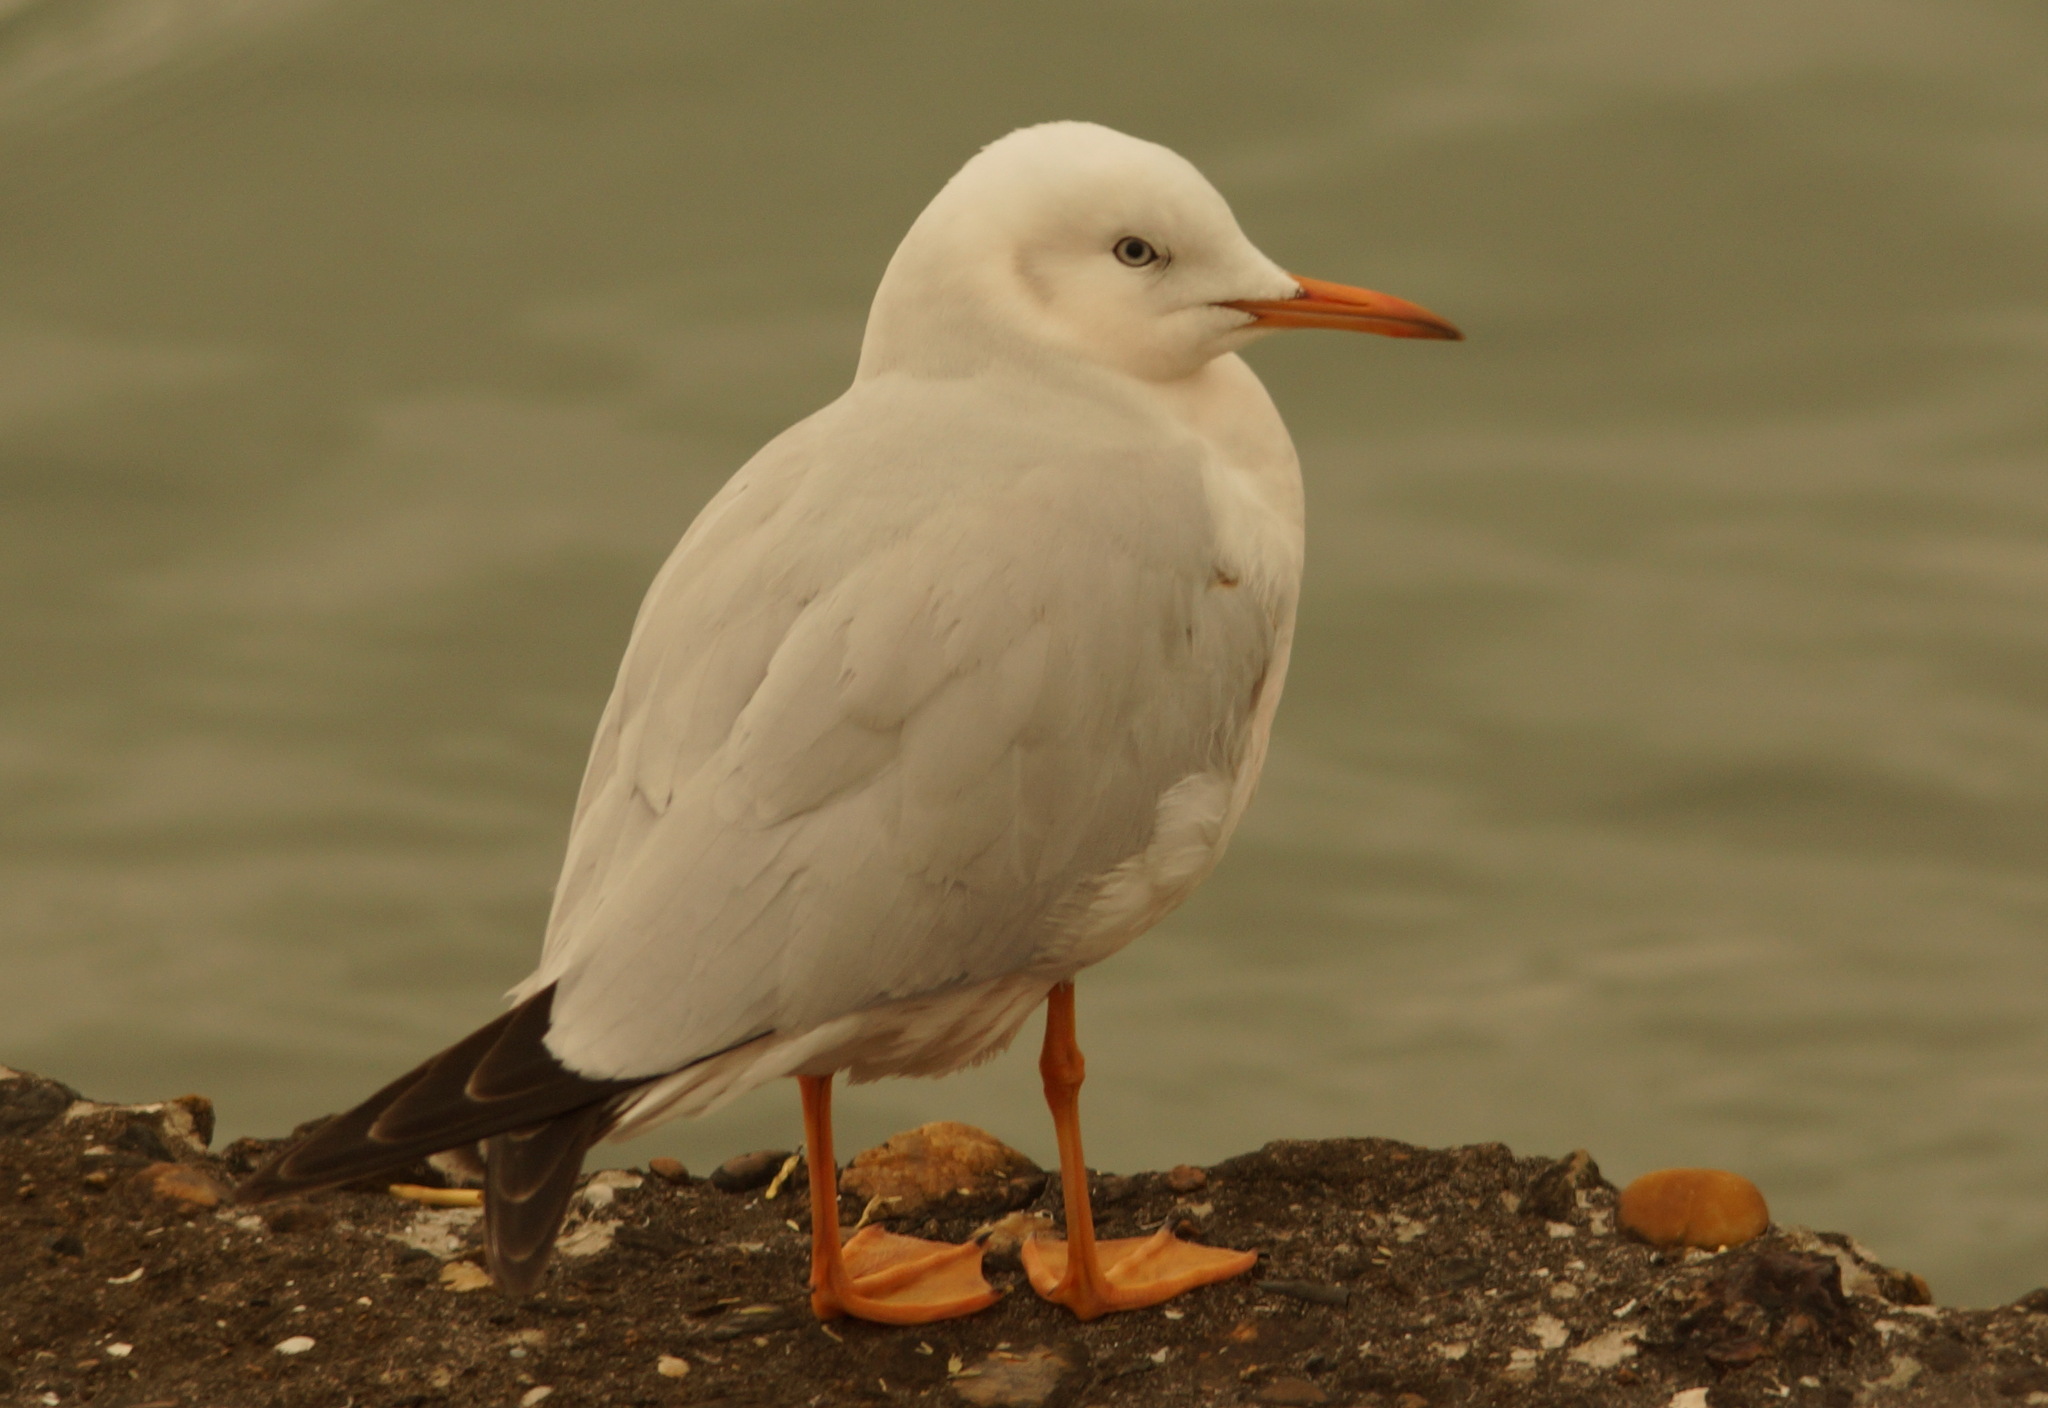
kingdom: Animalia
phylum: Chordata
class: Aves
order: Charadriiformes
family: Laridae
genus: Chroicocephalus
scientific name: Chroicocephalus genei
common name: Slender-billed gull
